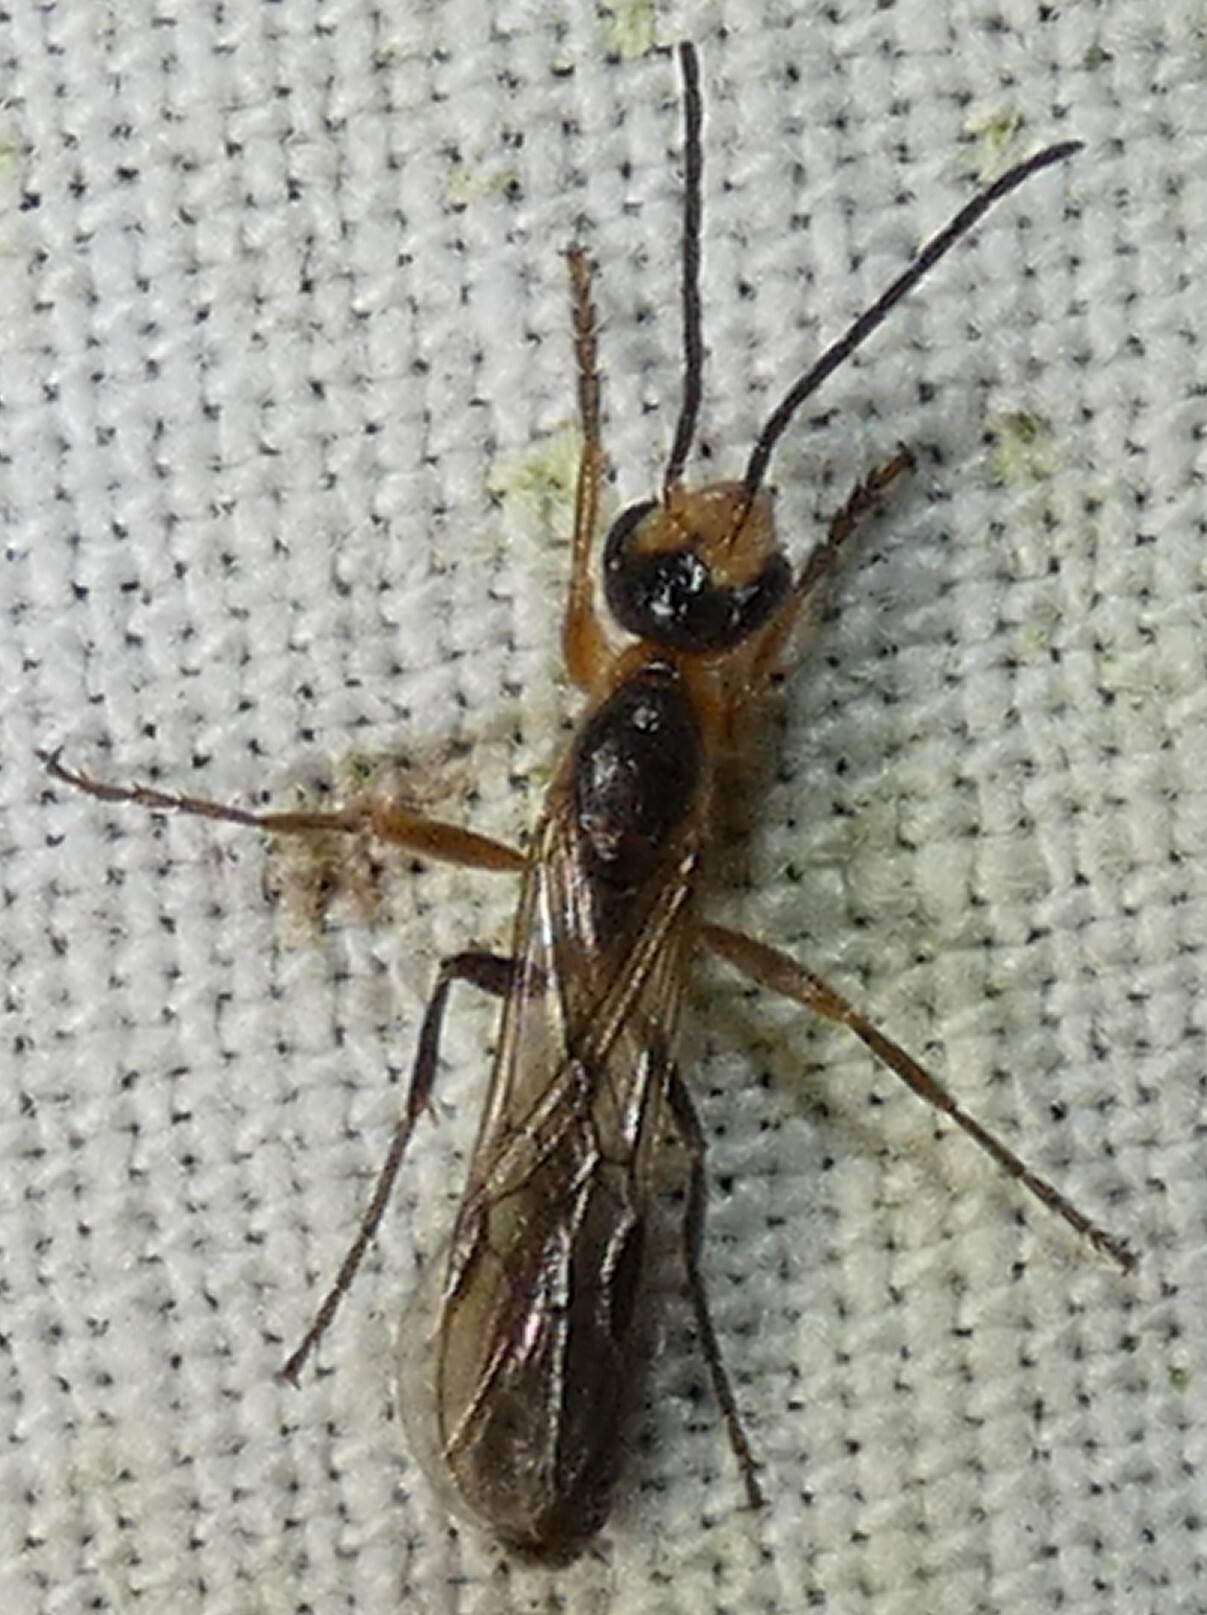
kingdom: Animalia
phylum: Arthropoda
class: Insecta
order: Hymenoptera
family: Formicidae
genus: Pseudomyrmex
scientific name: Pseudomyrmex gracilis
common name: Graceful twig ant
